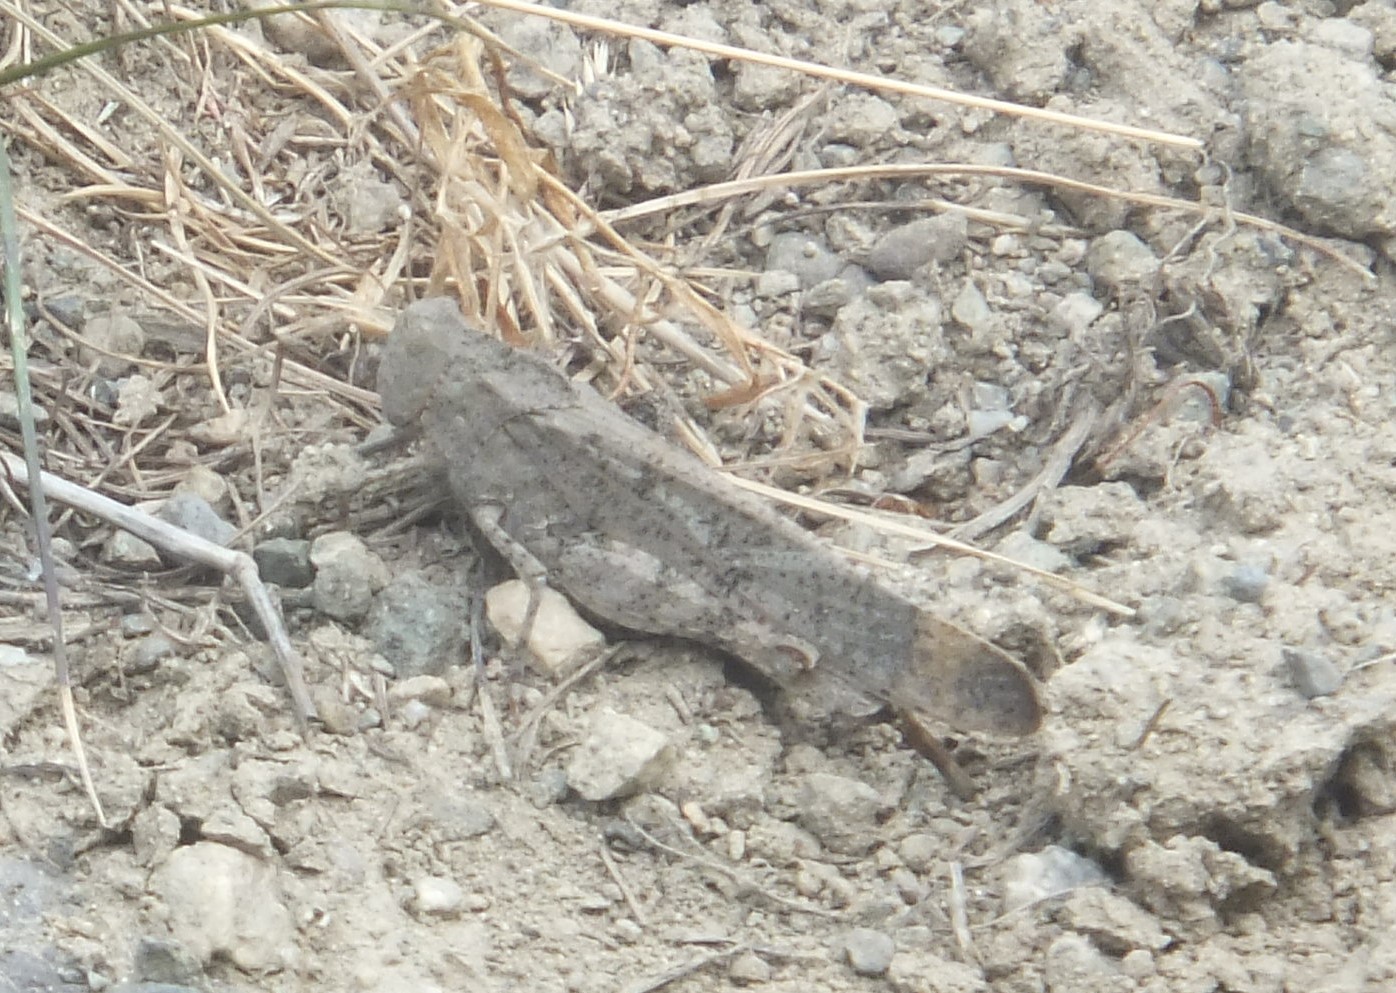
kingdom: Animalia
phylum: Arthropoda
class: Insecta
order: Orthoptera
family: Acrididae
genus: Dissosteira
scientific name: Dissosteira carolina
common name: Carolina grasshopper
